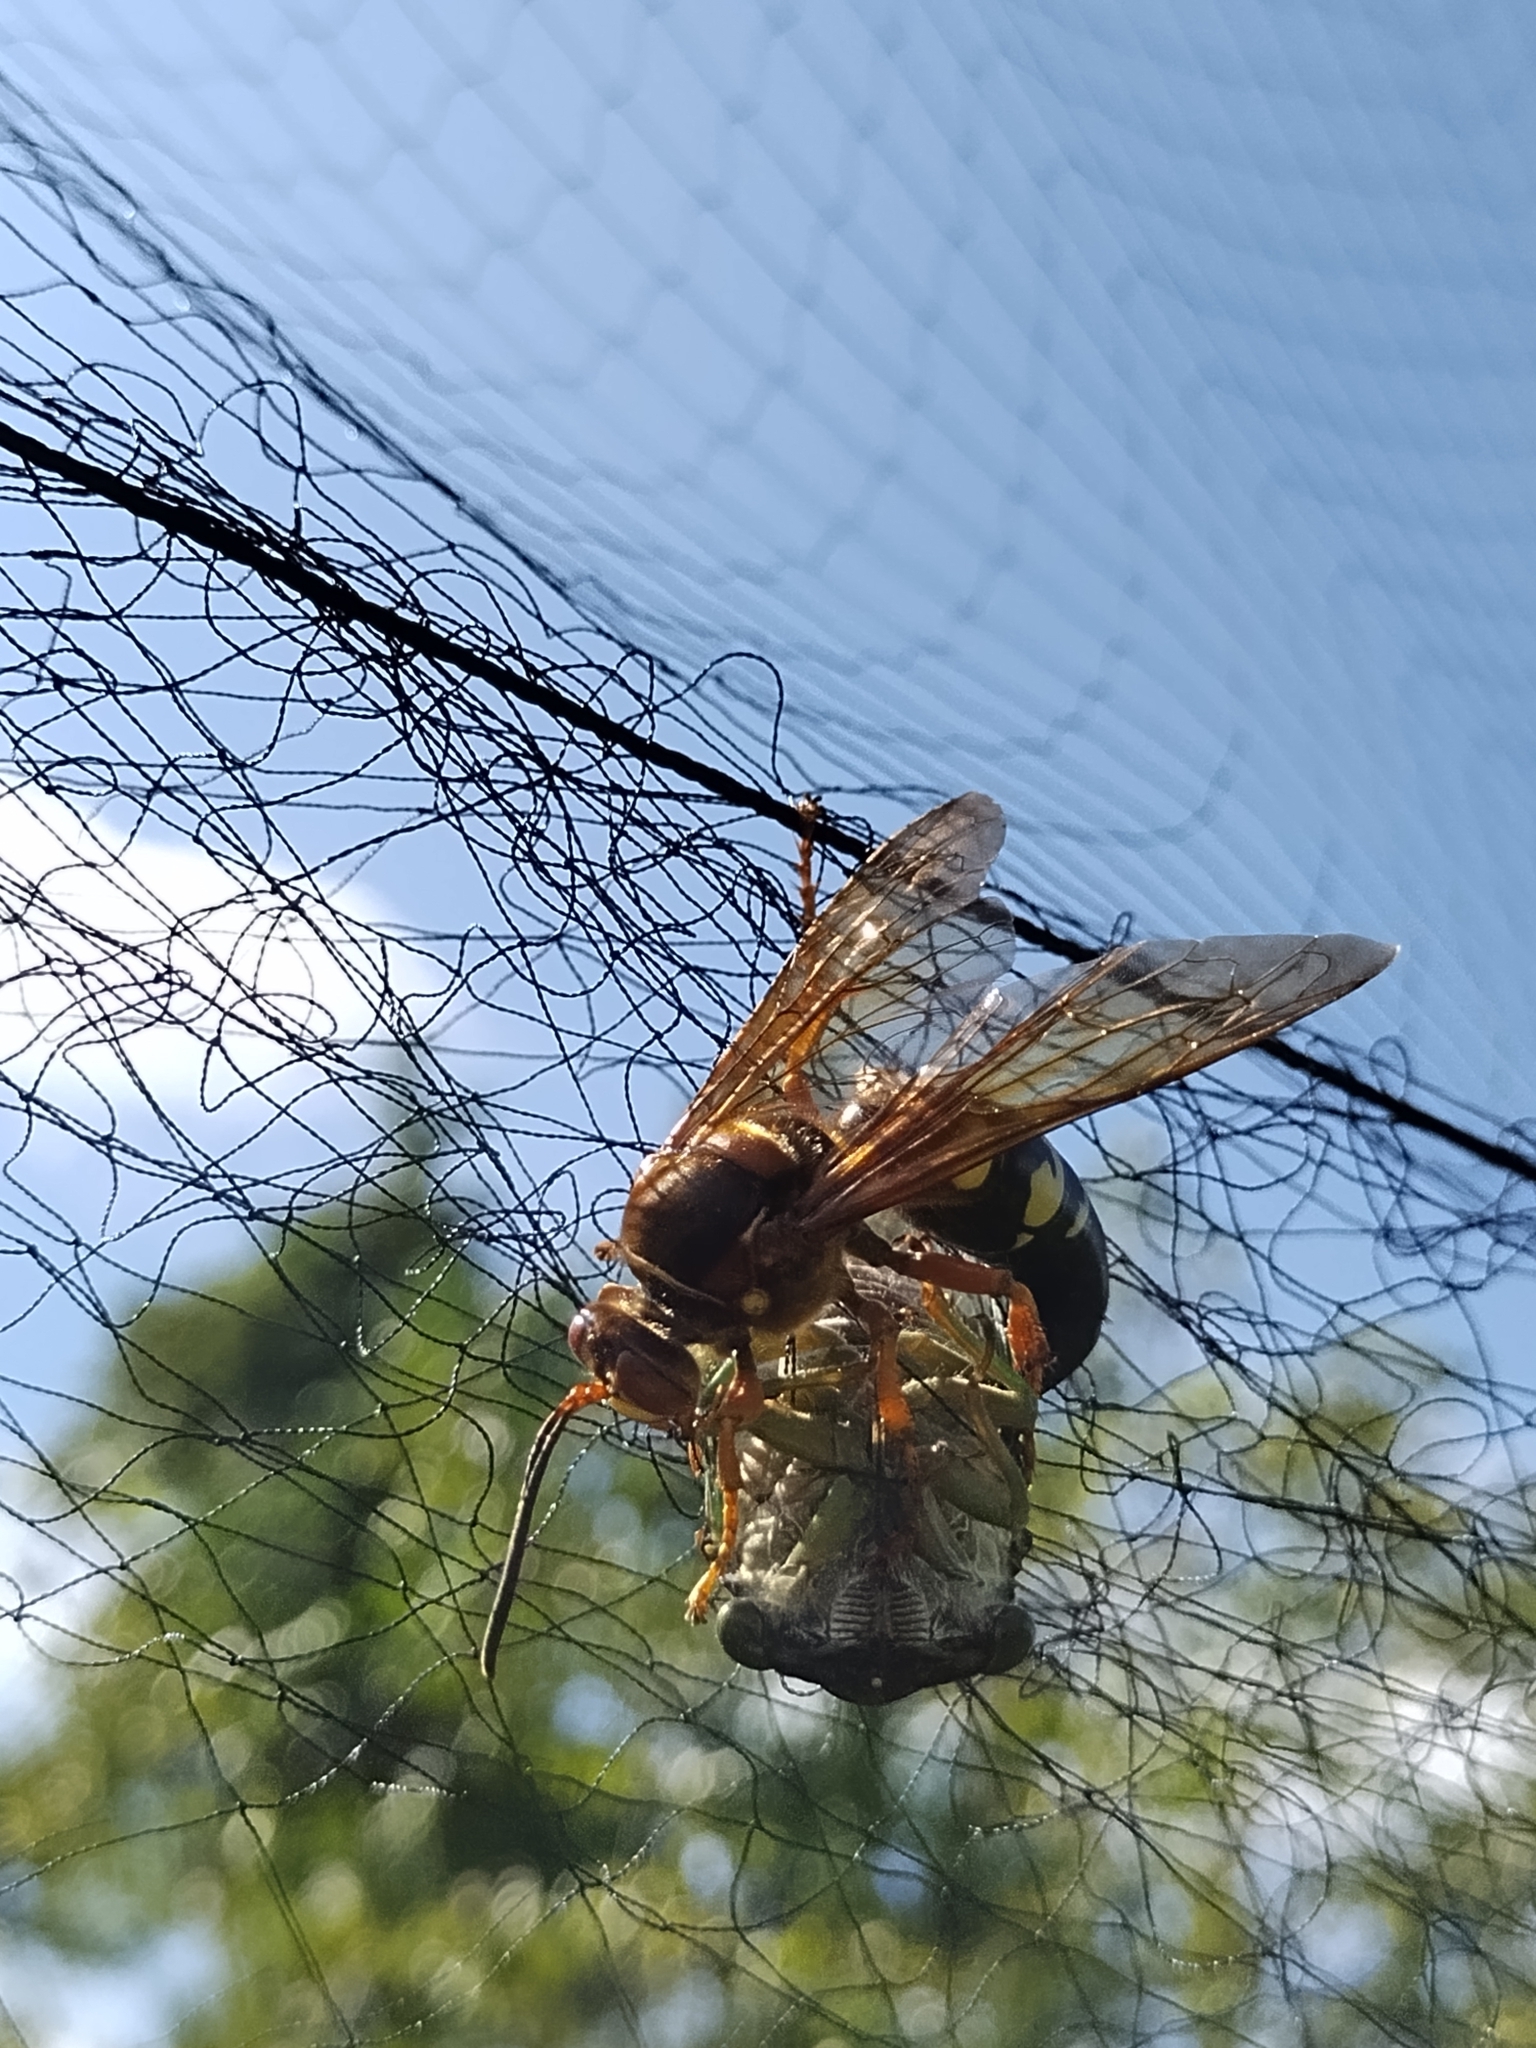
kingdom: Animalia
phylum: Arthropoda
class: Insecta
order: Hymenoptera
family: Crabronidae
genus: Sphecius
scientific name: Sphecius speciosus
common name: Cicada killer
